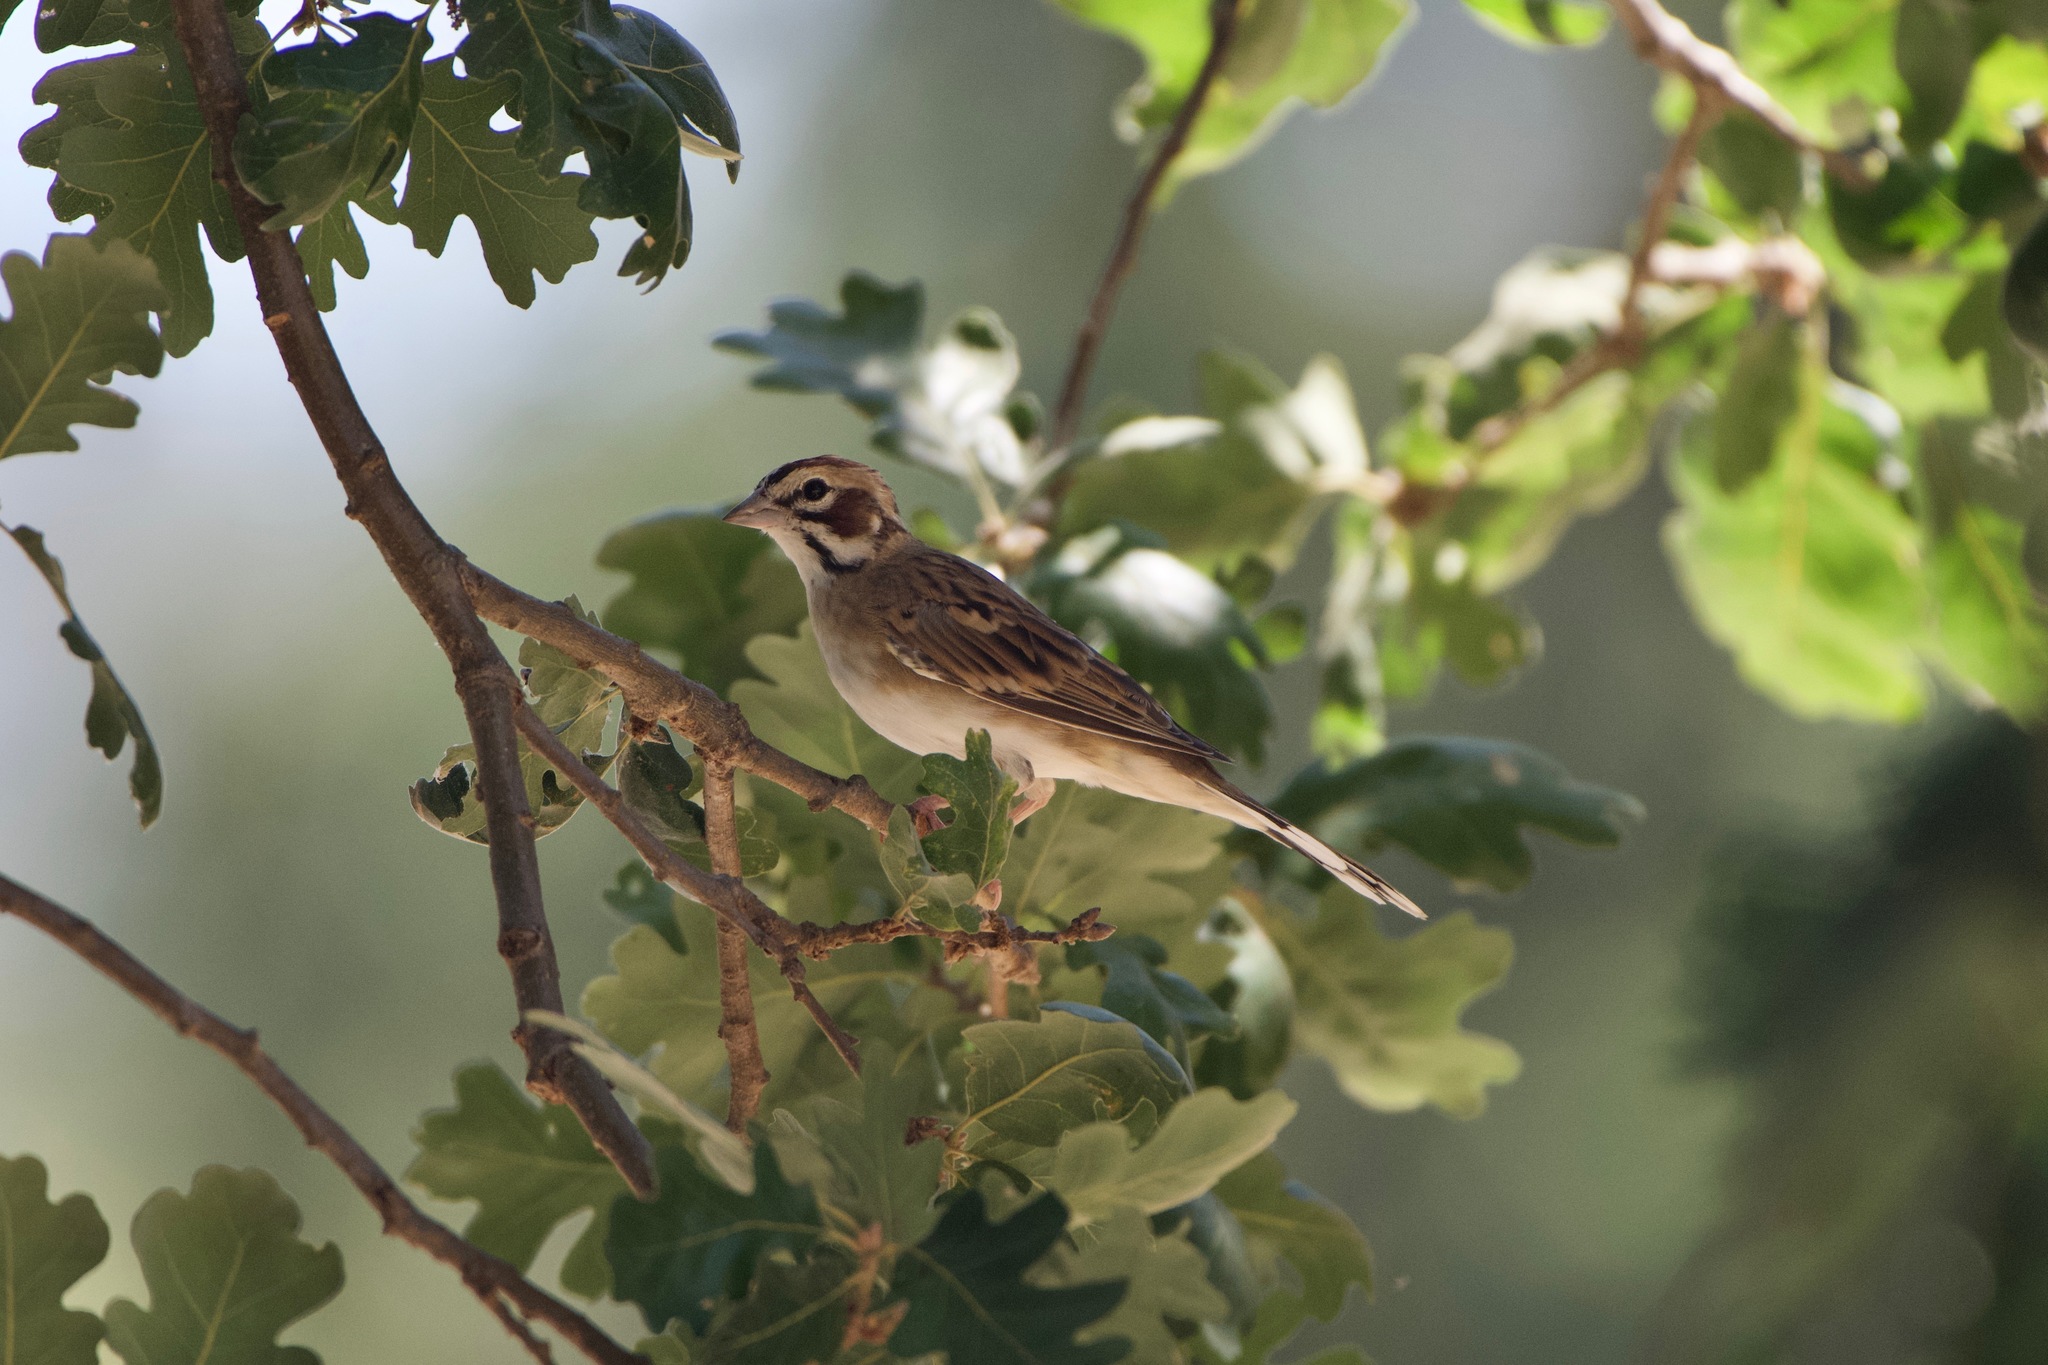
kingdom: Animalia
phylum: Chordata
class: Aves
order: Passeriformes
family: Passerellidae
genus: Chondestes
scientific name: Chondestes grammacus
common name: Lark sparrow
